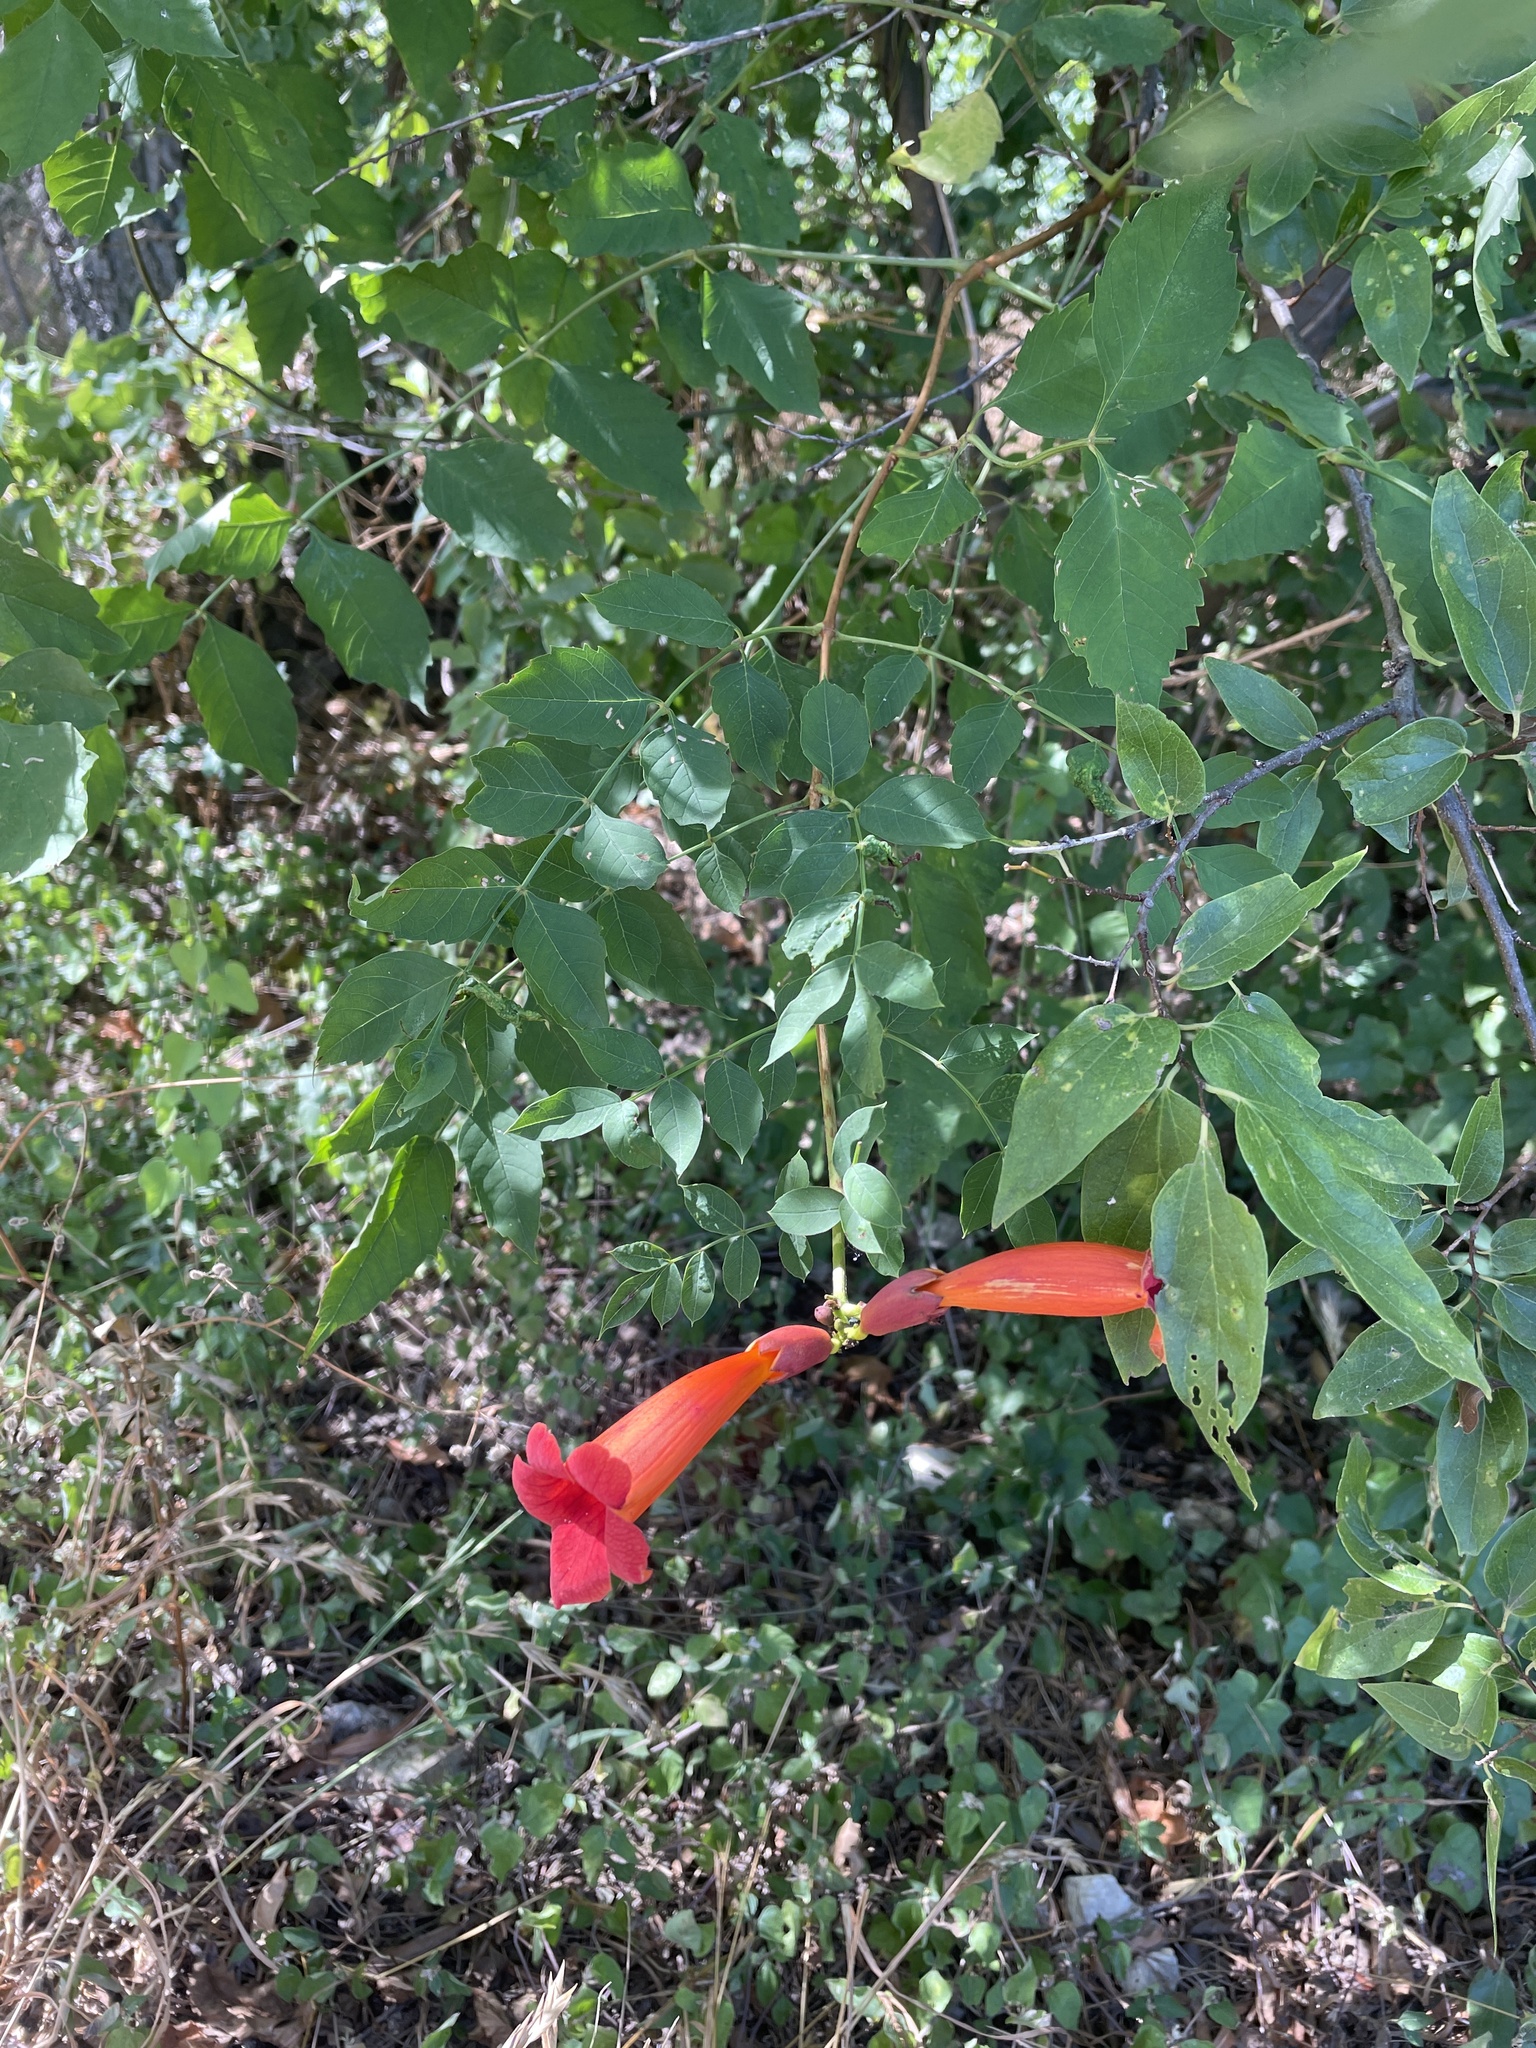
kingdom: Plantae
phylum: Tracheophyta
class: Magnoliopsida
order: Lamiales
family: Bignoniaceae
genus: Campsis
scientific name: Campsis radicans
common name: Trumpet-creeper
